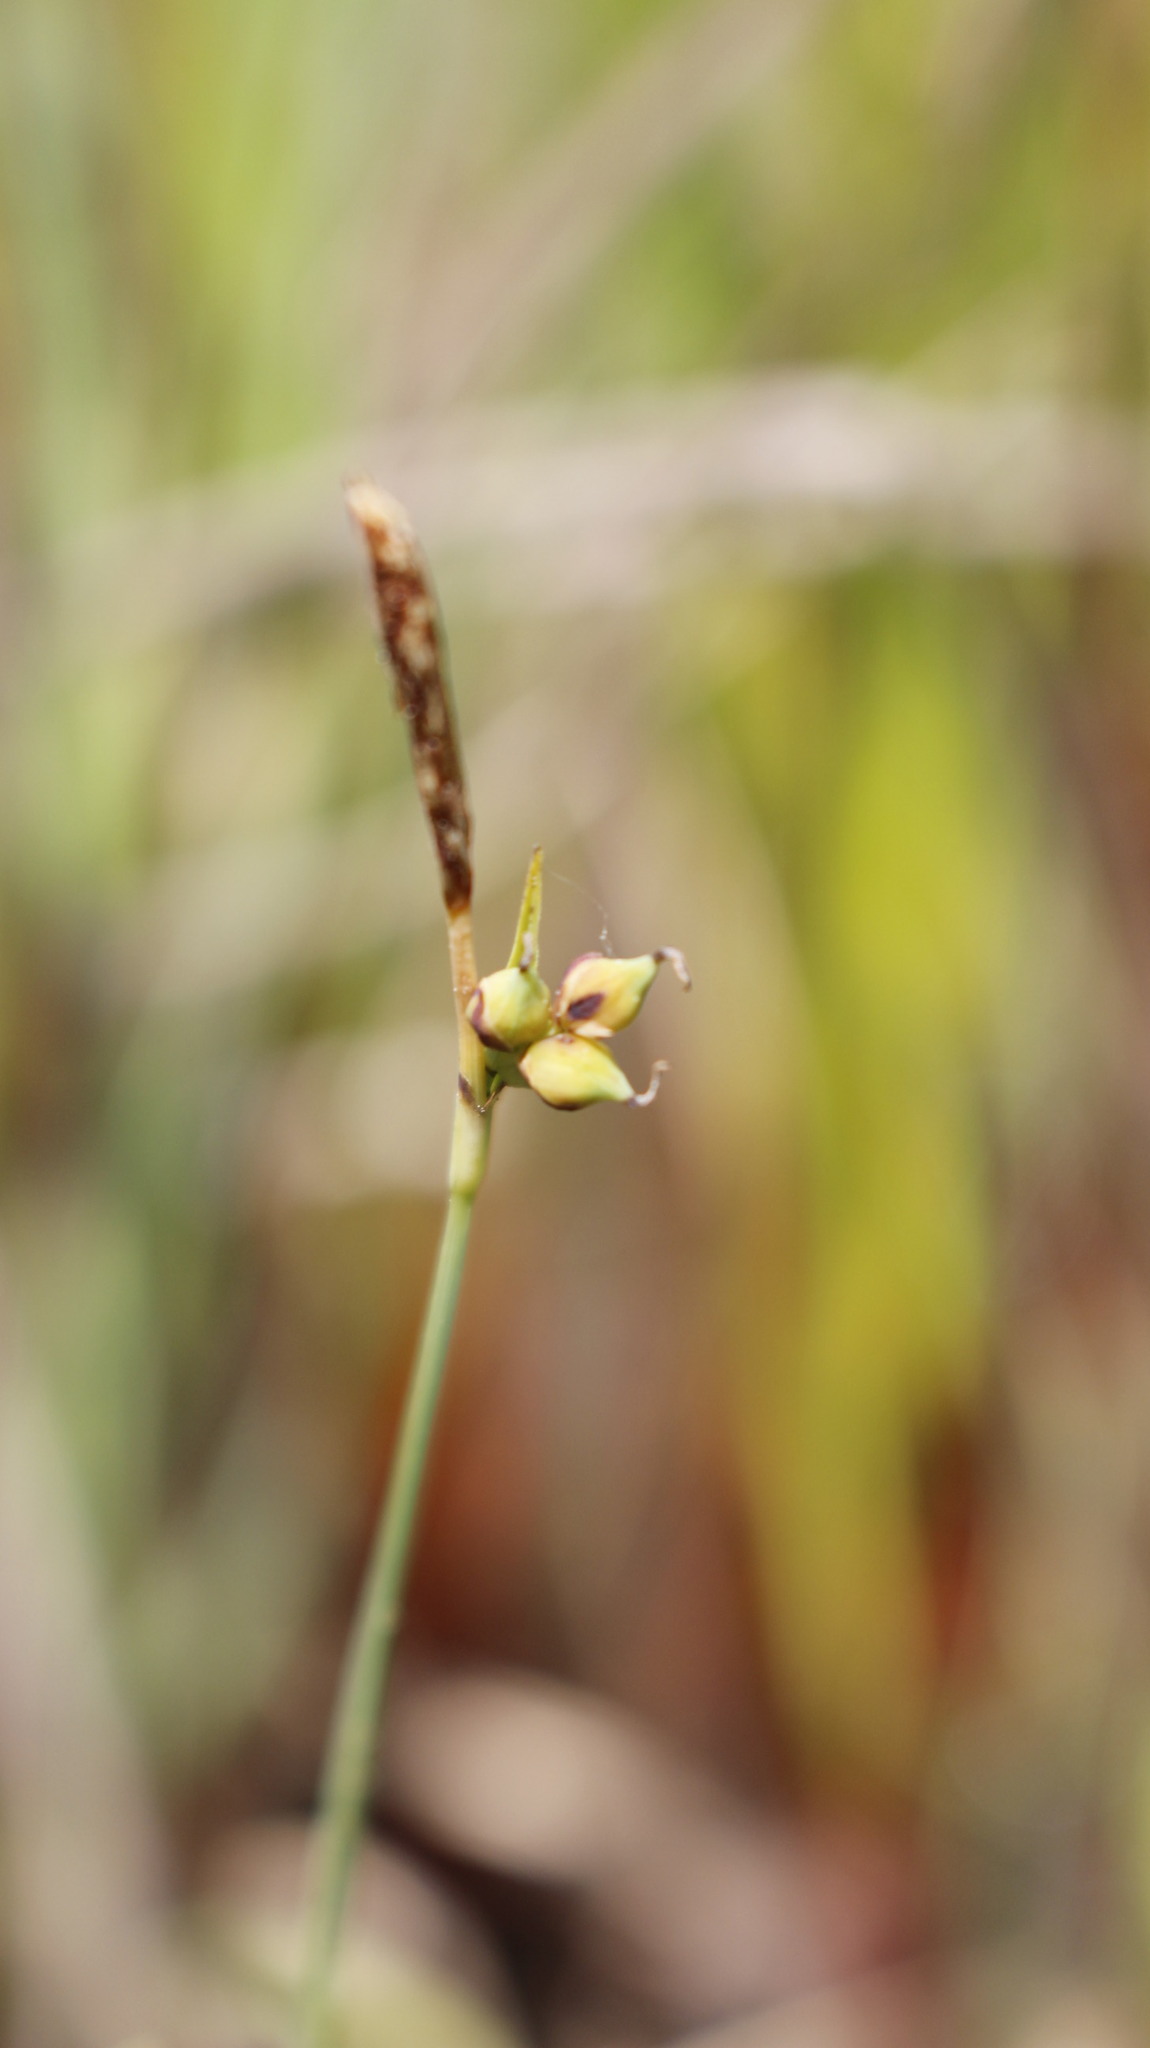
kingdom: Plantae
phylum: Tracheophyta
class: Liliopsida
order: Poales
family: Cyperaceae
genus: Carex
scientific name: Carex panicea
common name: Carnation sedge
